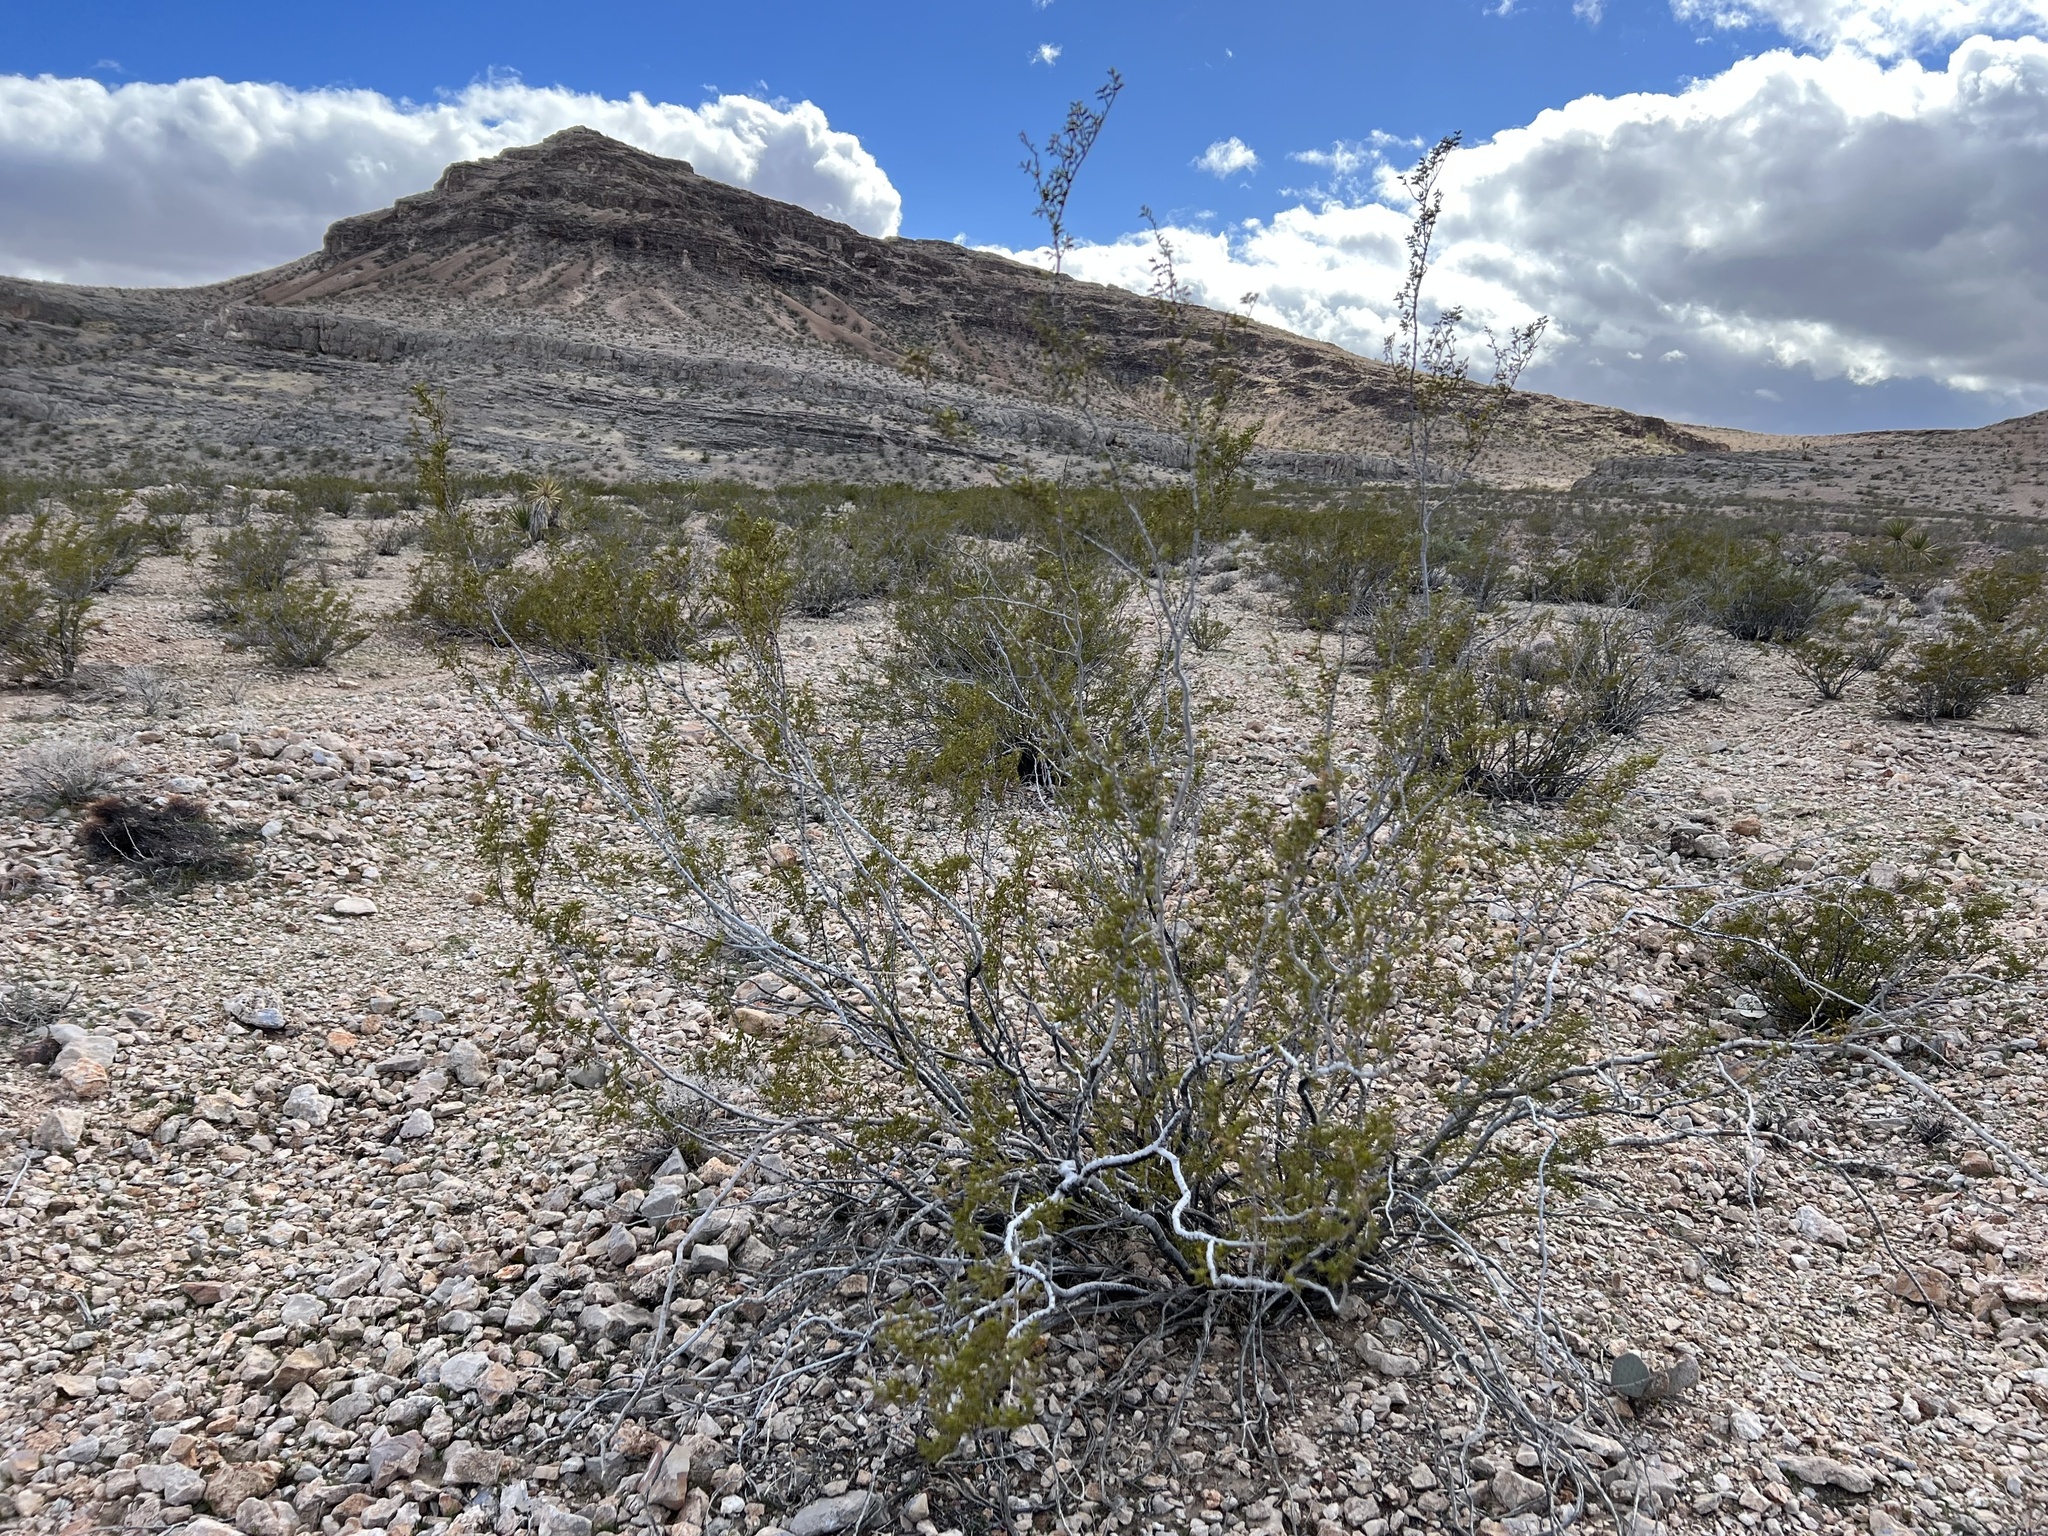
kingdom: Plantae
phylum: Tracheophyta
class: Magnoliopsida
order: Zygophyllales
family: Zygophyllaceae
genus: Larrea
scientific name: Larrea tridentata
